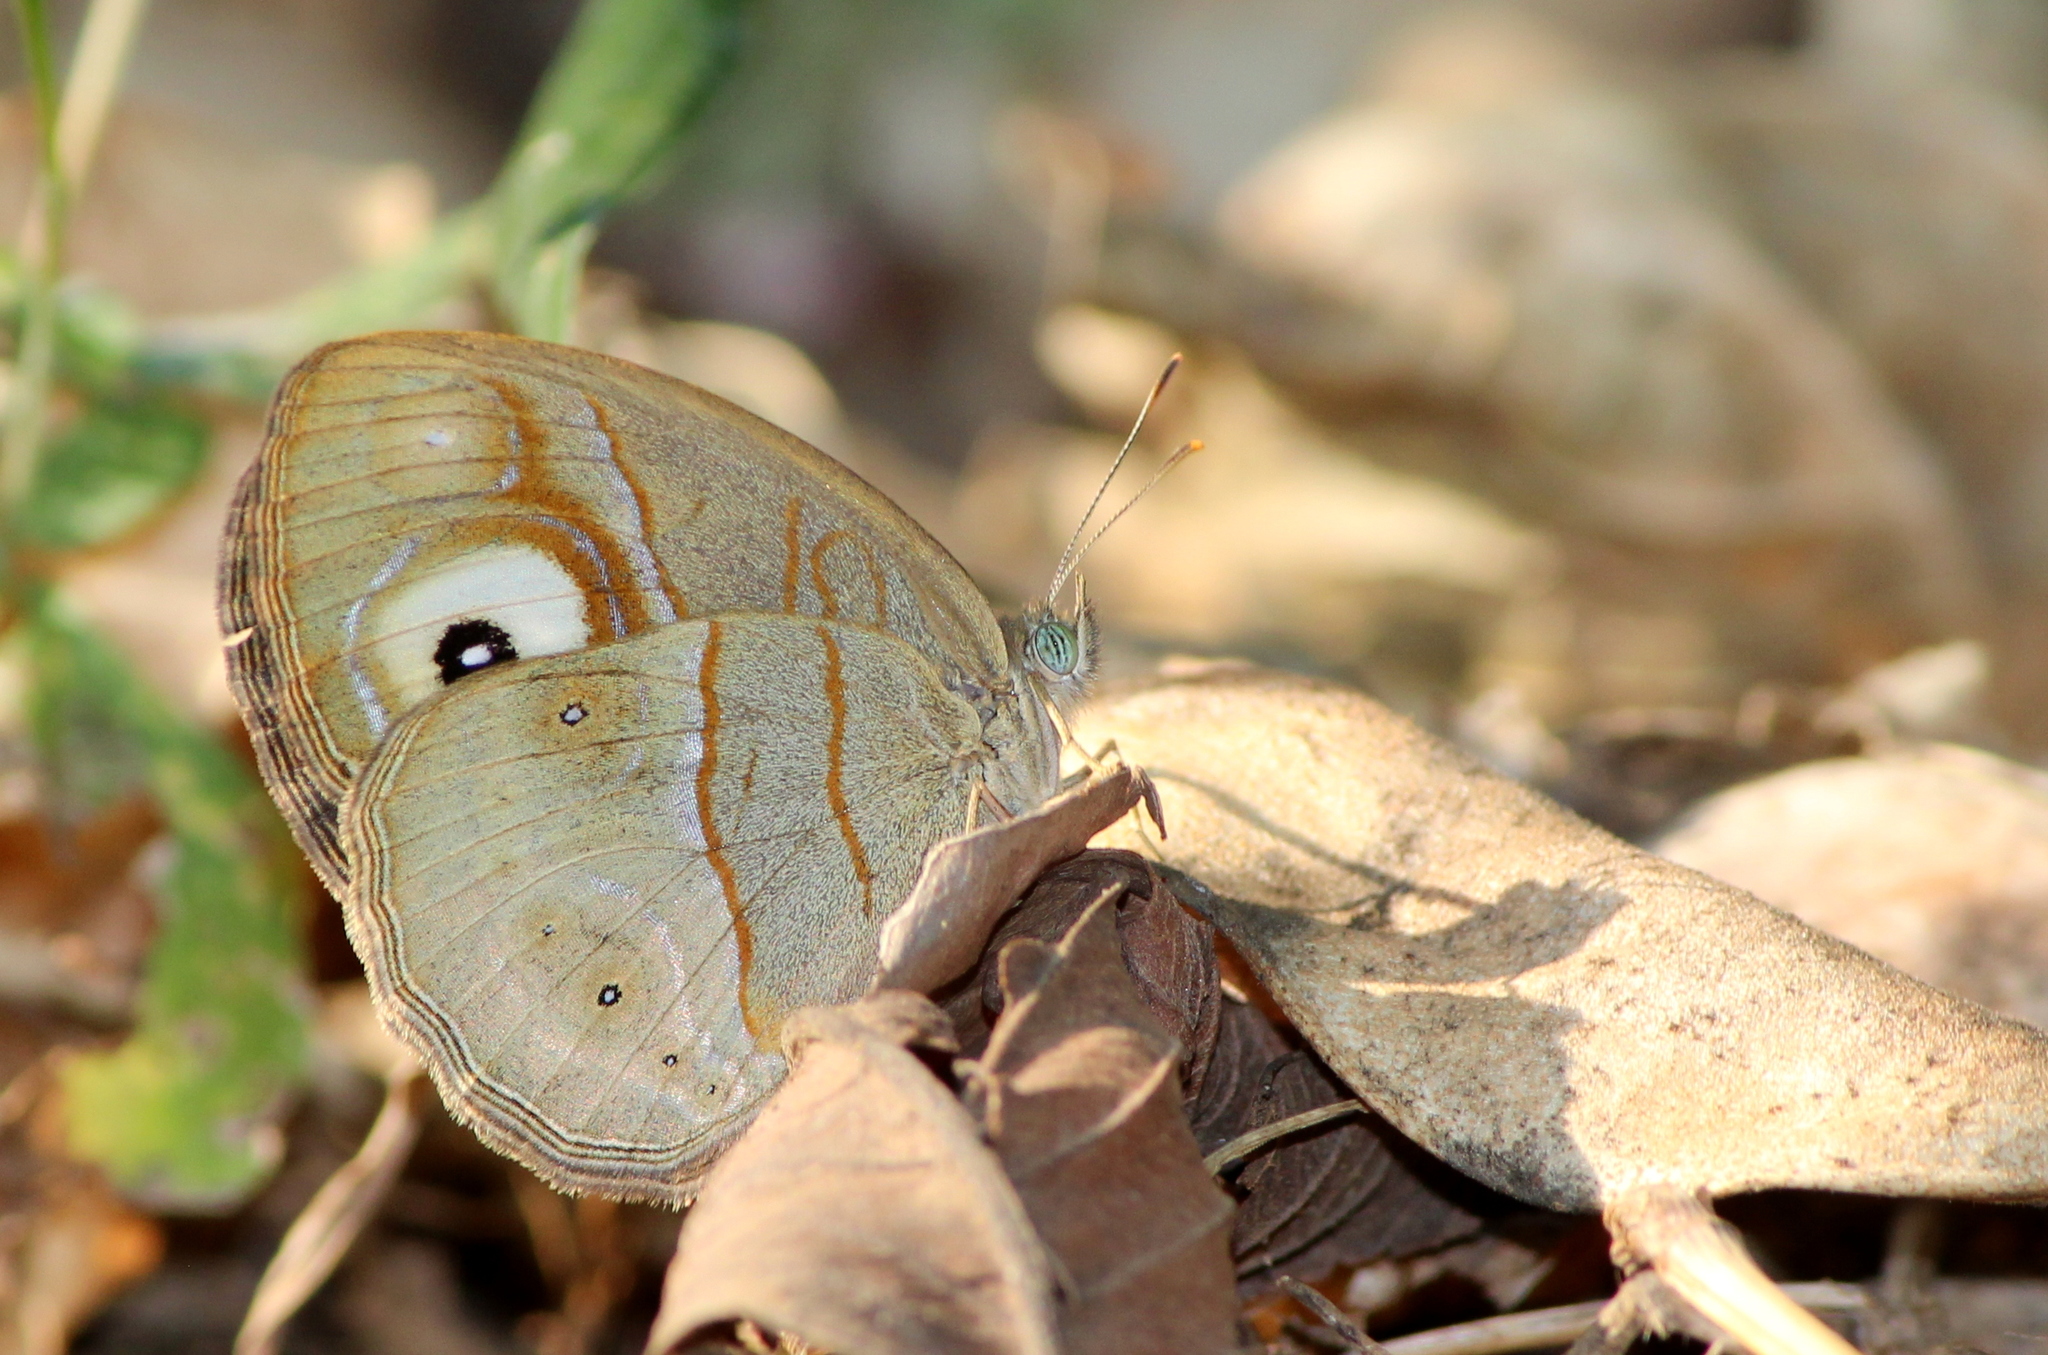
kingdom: Animalia
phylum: Arthropoda
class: Insecta
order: Lepidoptera
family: Nymphalidae
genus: Mycalesis
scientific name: Mycalesis patnia
